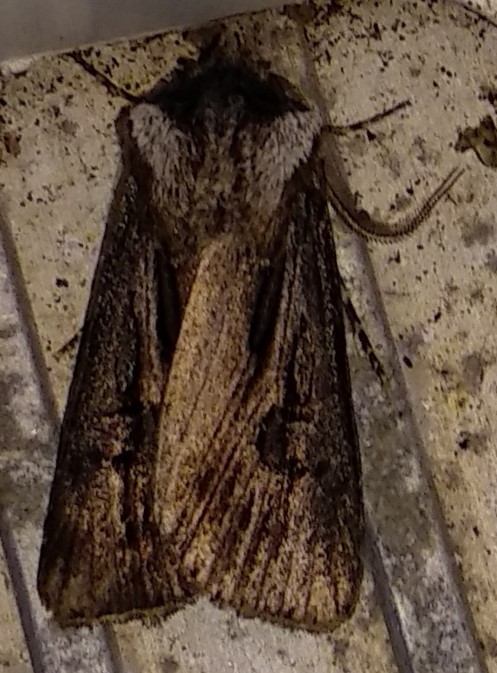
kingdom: Animalia
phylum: Arthropoda
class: Insecta
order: Lepidoptera
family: Noctuidae
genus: Agrotis
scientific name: Agrotis venerabilis
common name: Venerable dart
